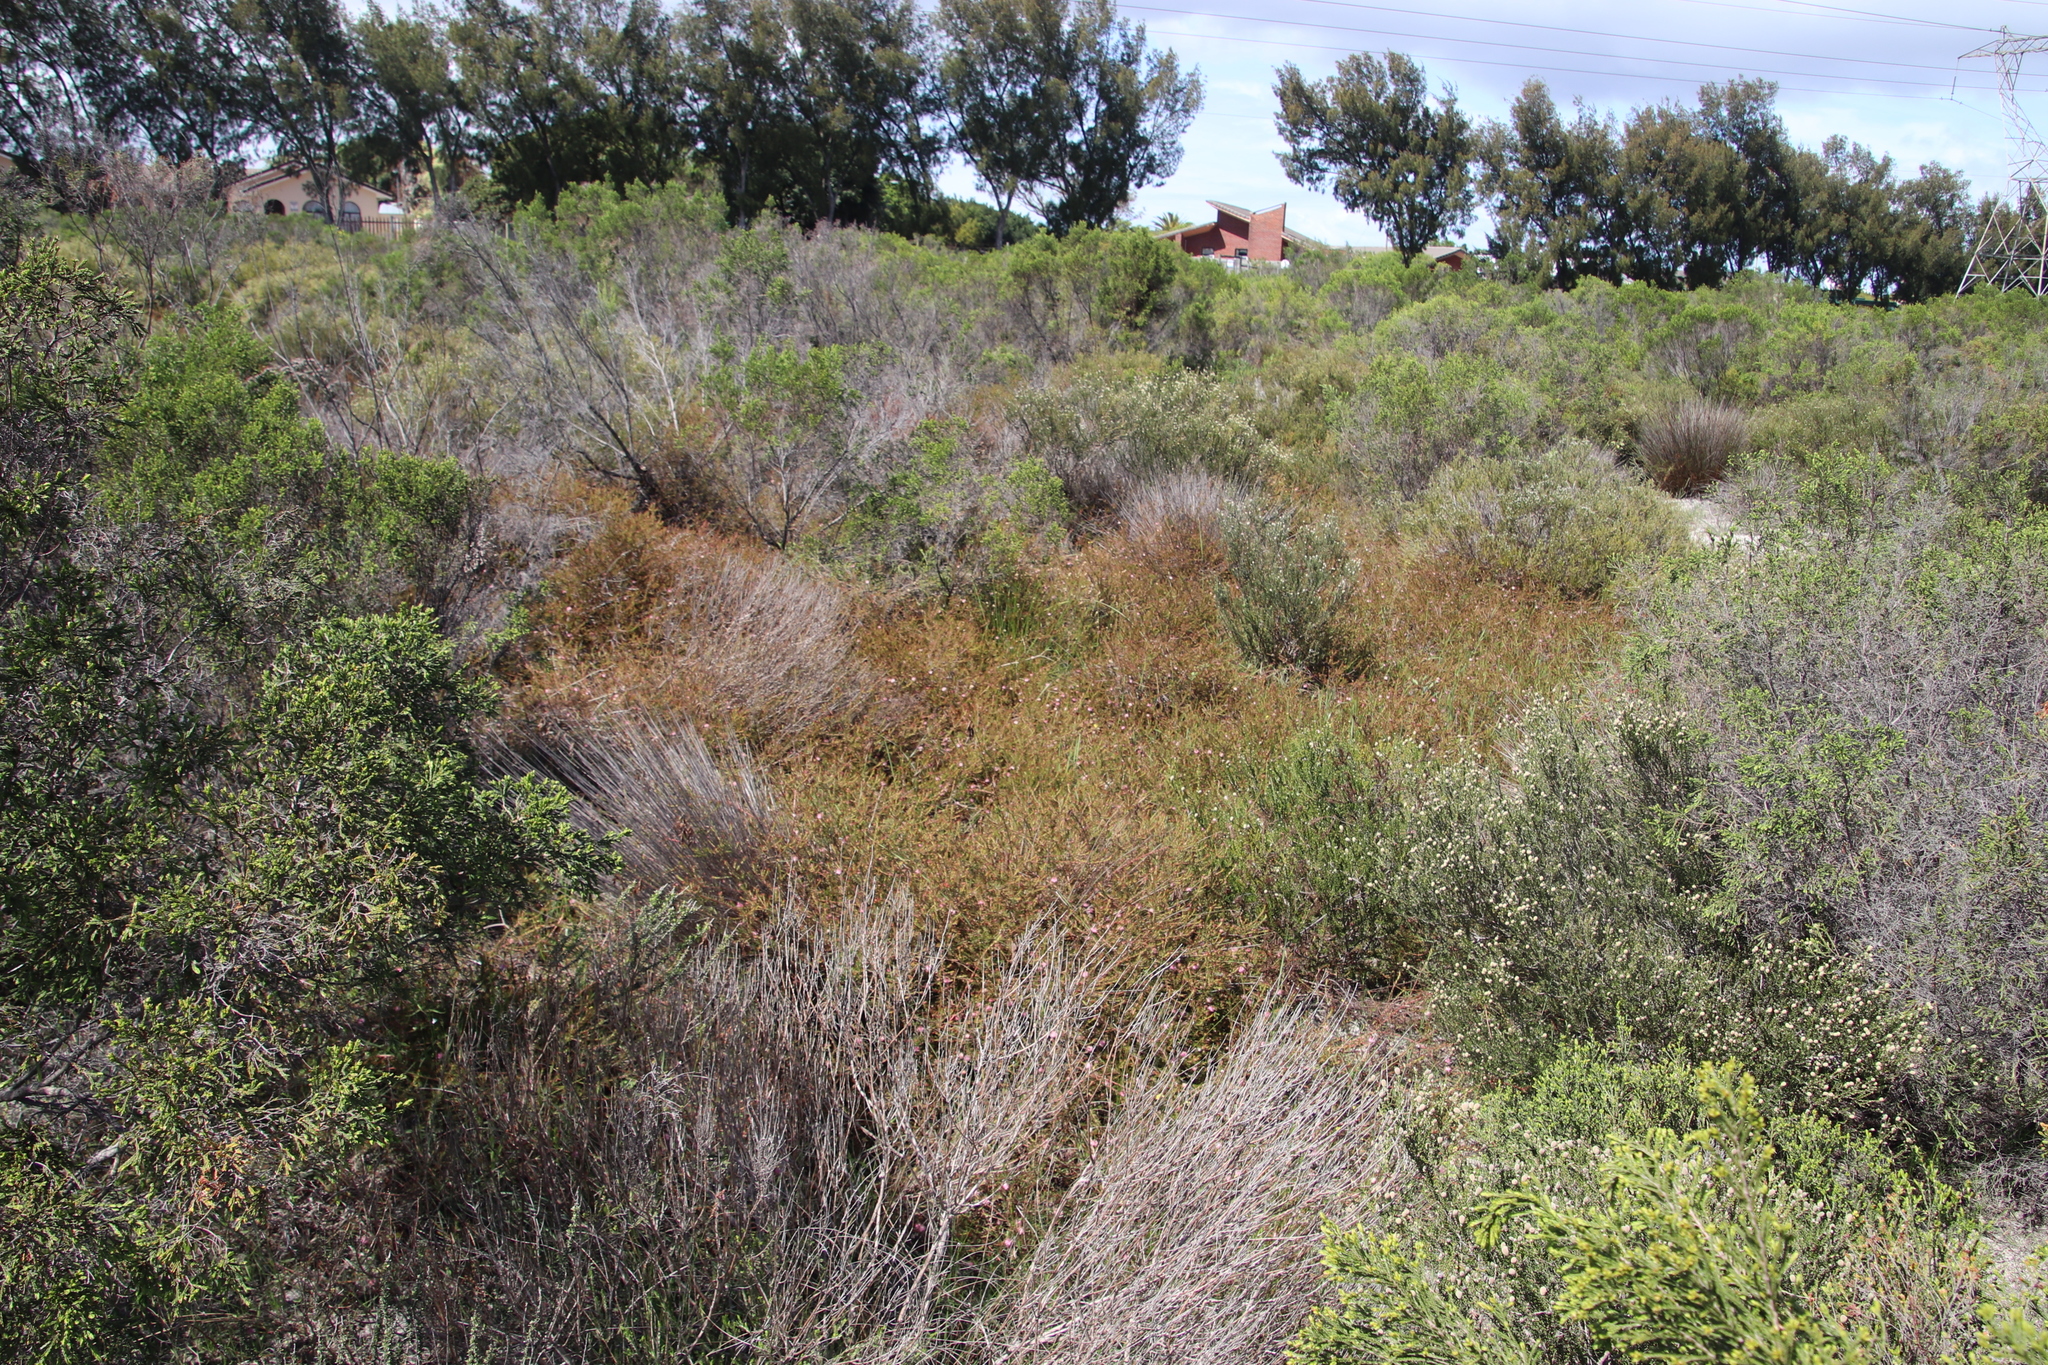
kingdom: Plantae
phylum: Tracheophyta
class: Magnoliopsida
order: Proteales
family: Proteaceae
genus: Diastella
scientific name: Diastella proteoides
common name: Flats silkypuff
